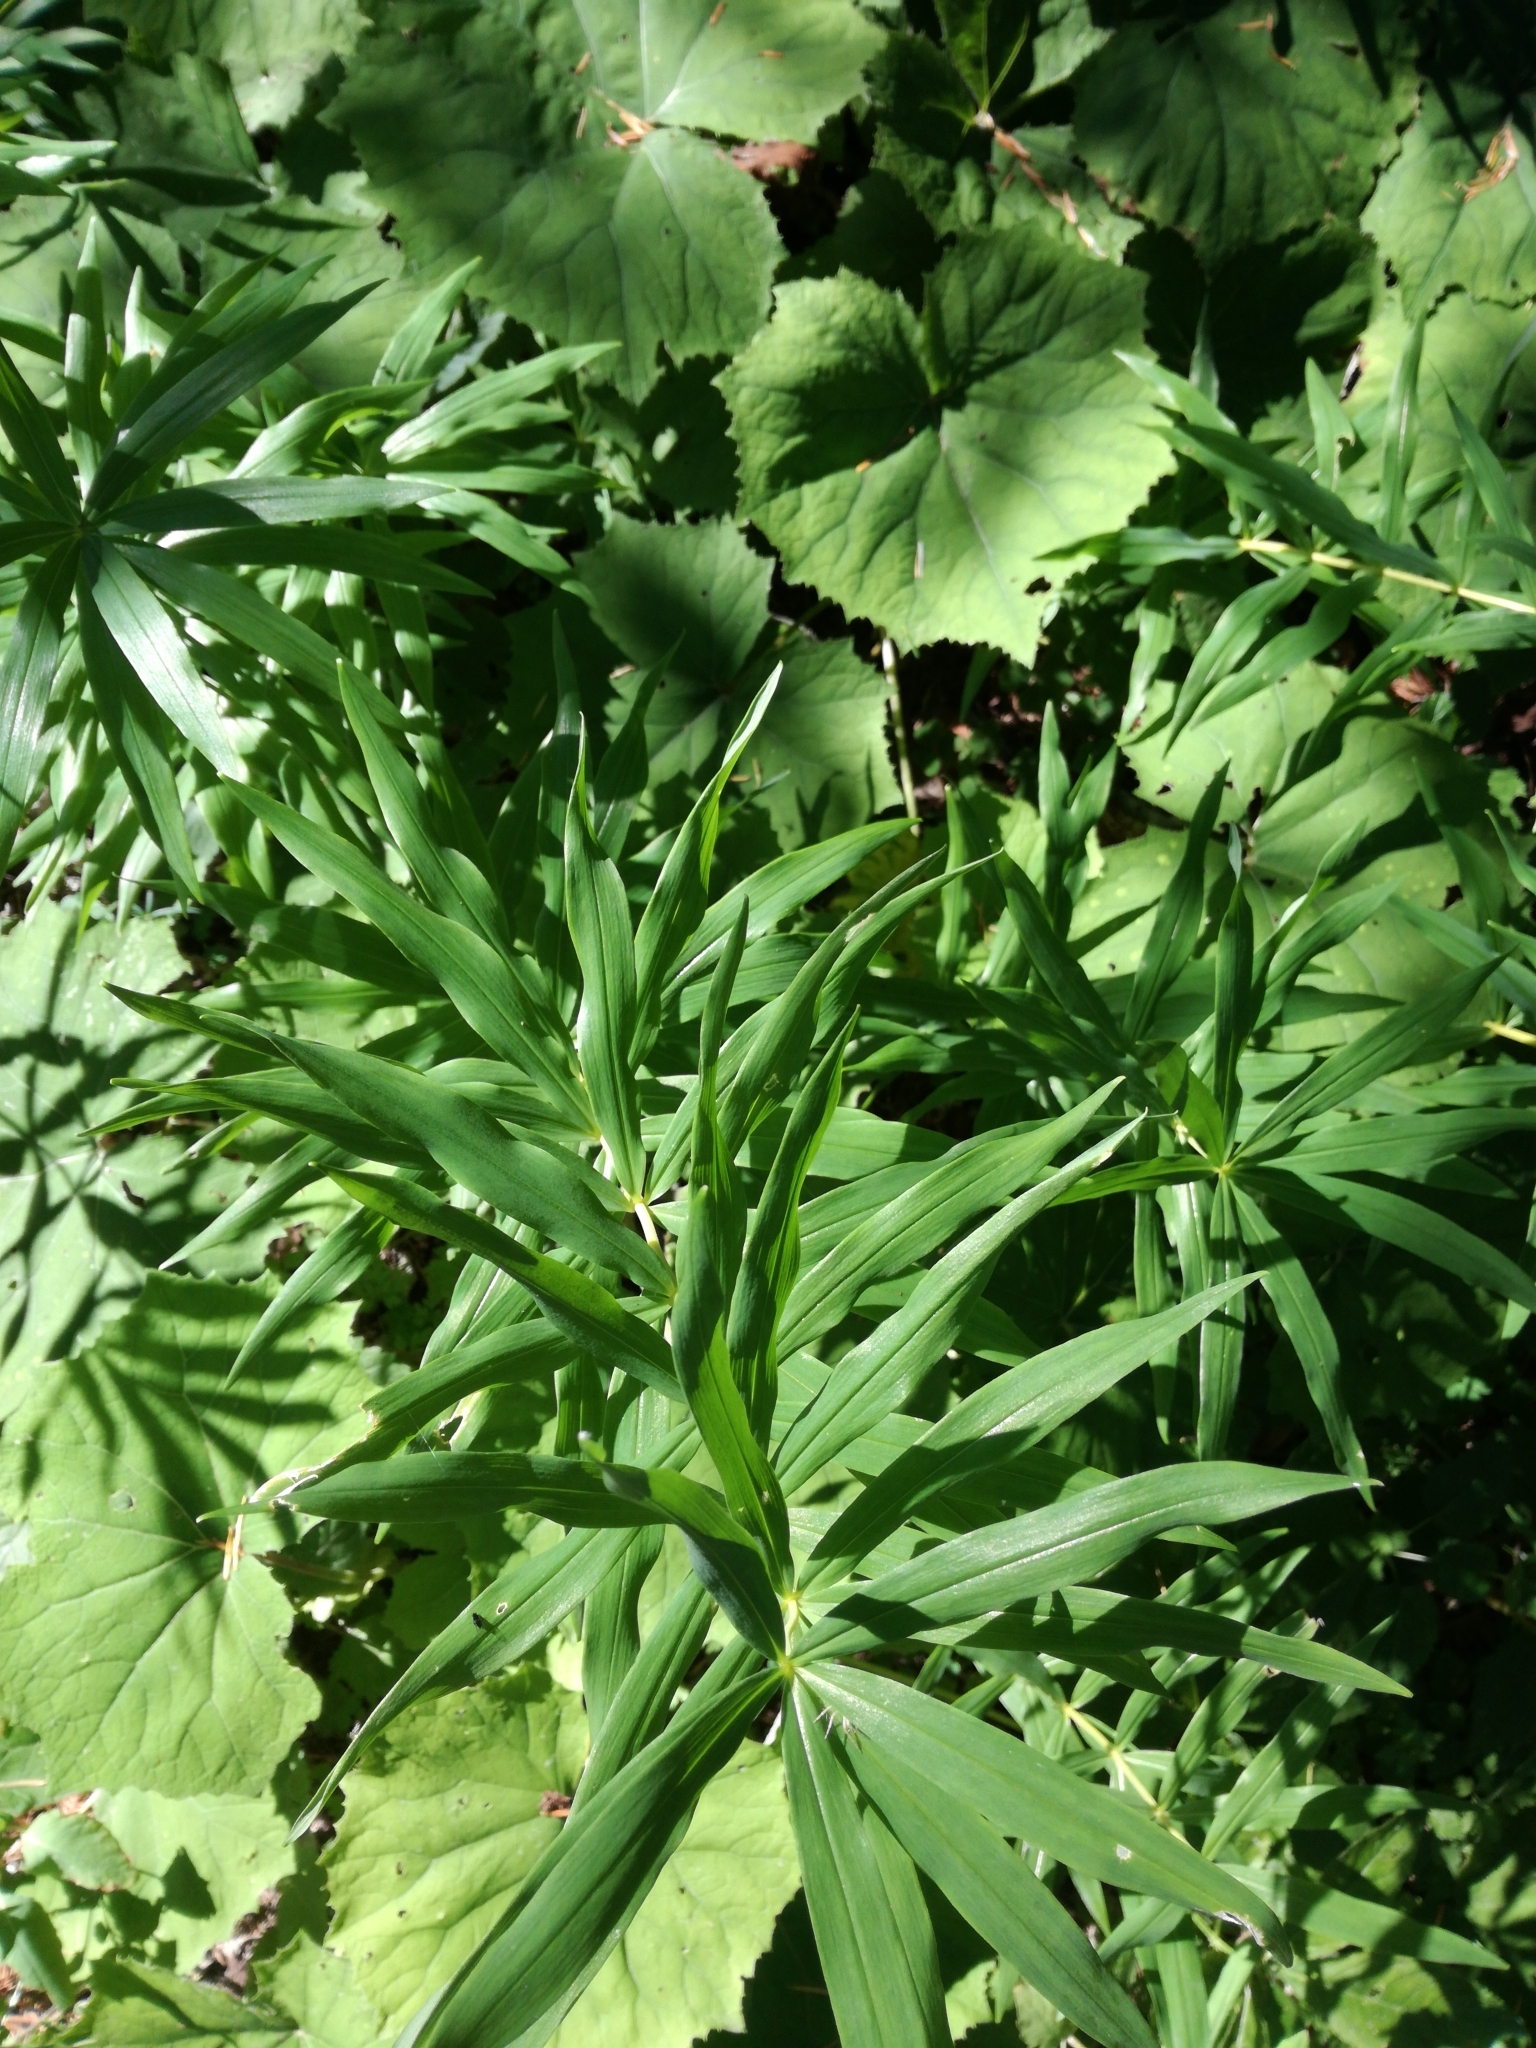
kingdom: Plantae
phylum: Tracheophyta
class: Liliopsida
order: Asparagales
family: Asparagaceae
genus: Polygonatum
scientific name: Polygonatum verticillatum
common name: Whorled solomon's-seal
